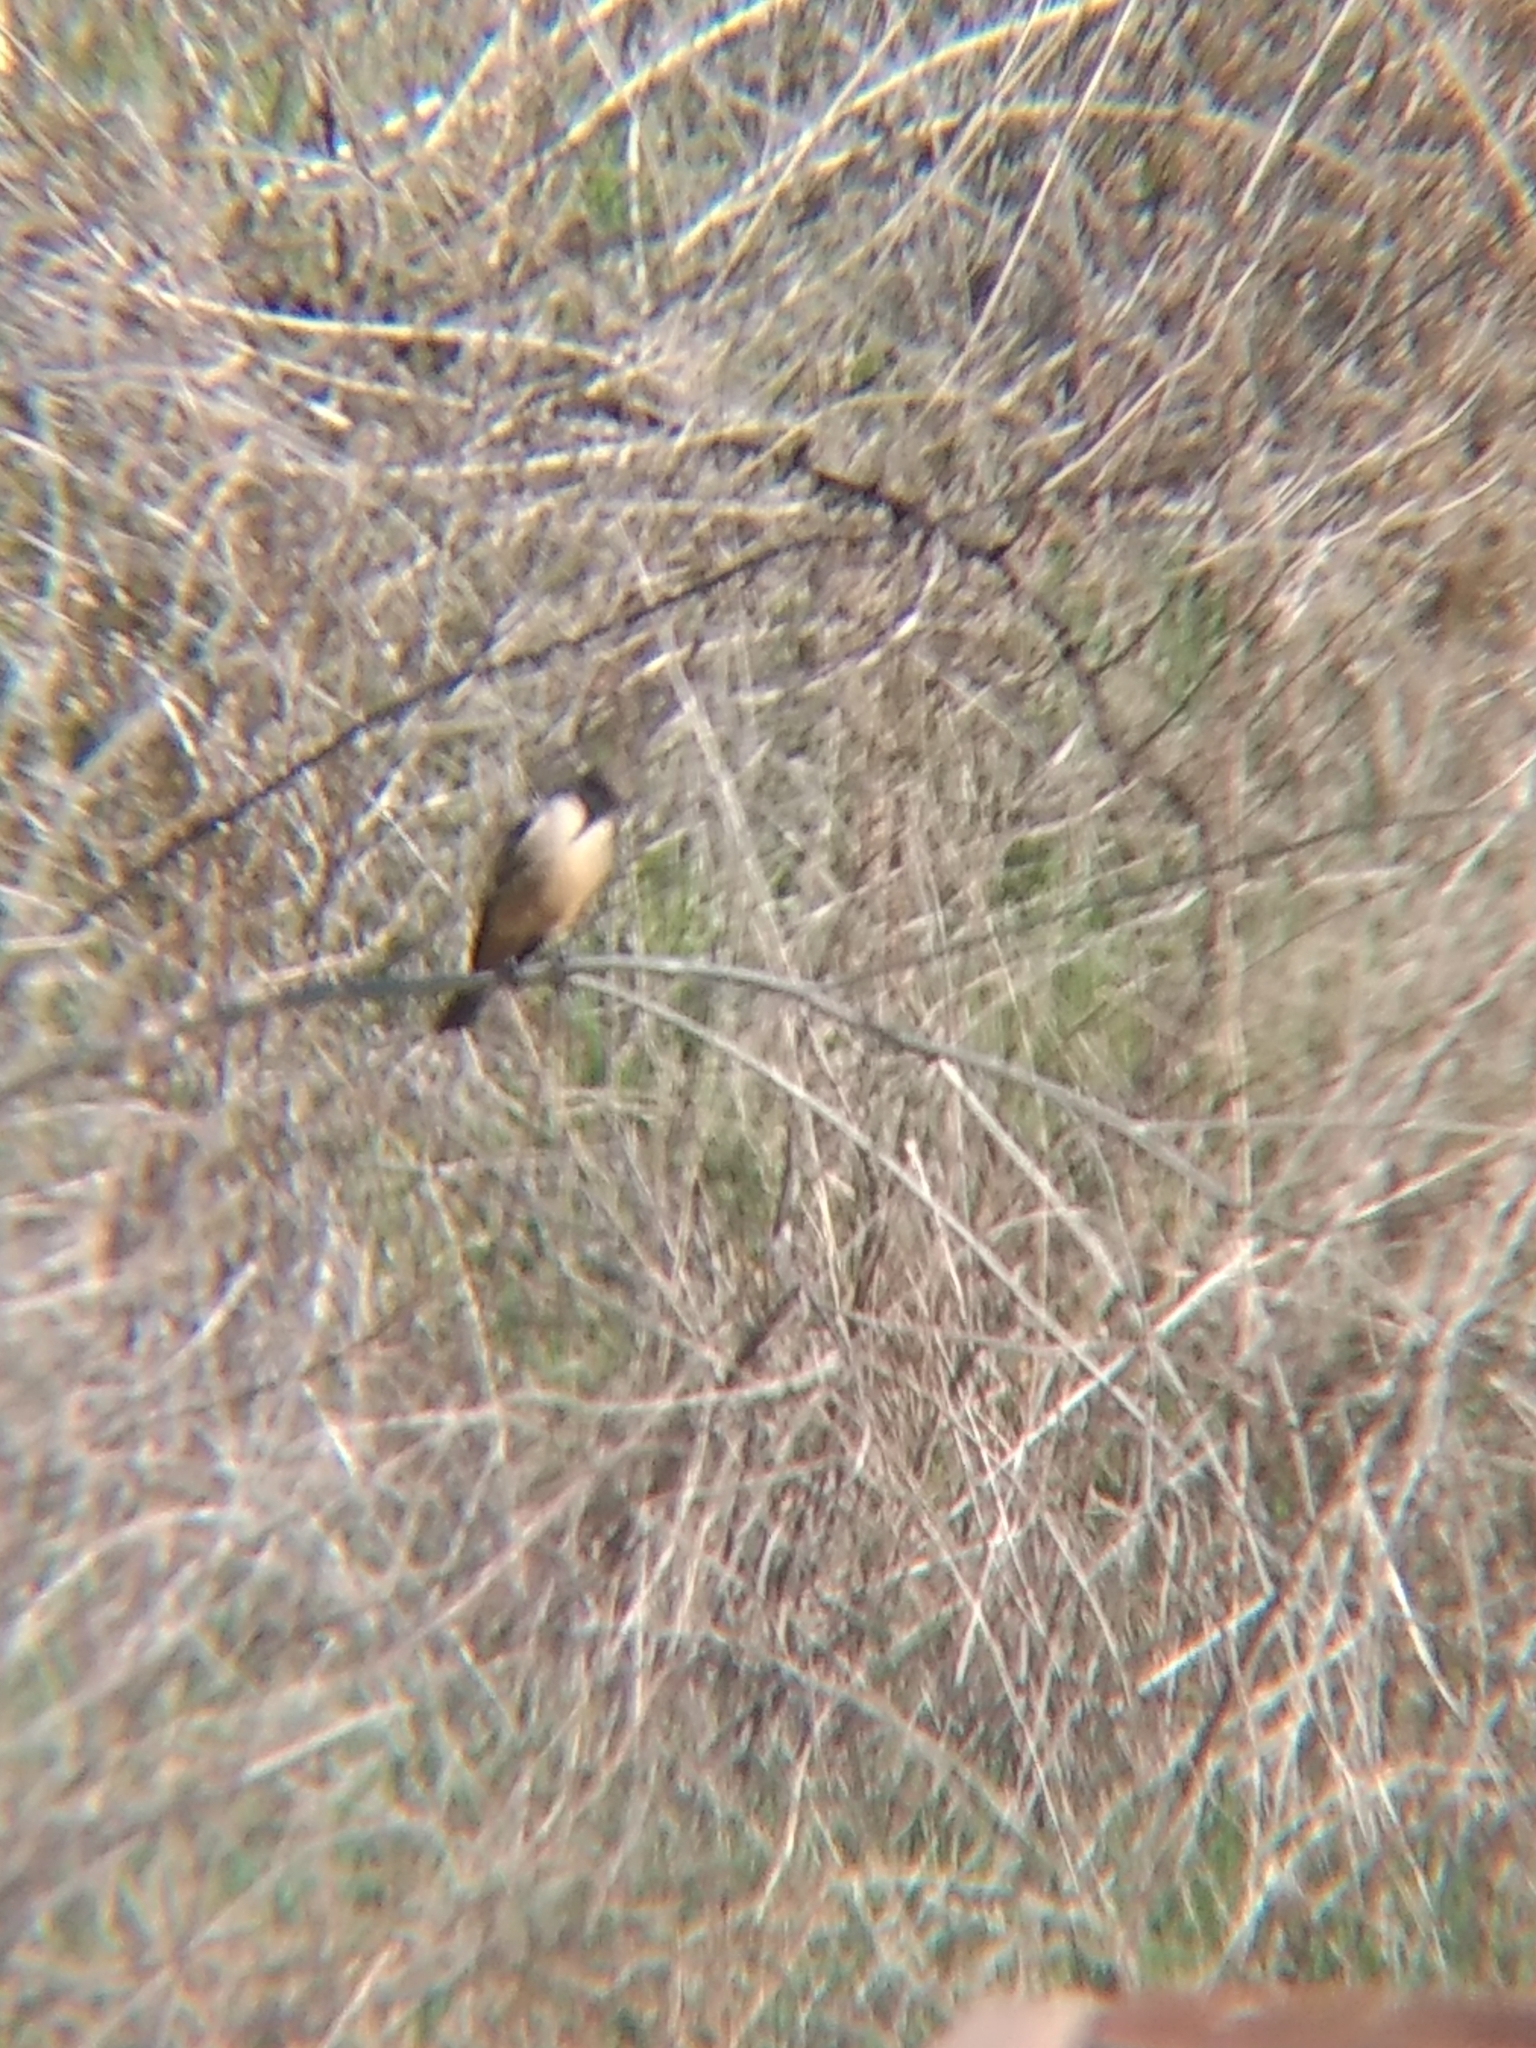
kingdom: Animalia
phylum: Chordata
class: Aves
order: Passeriformes
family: Tyrannidae
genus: Sayornis
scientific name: Sayornis saya
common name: Say's phoebe
